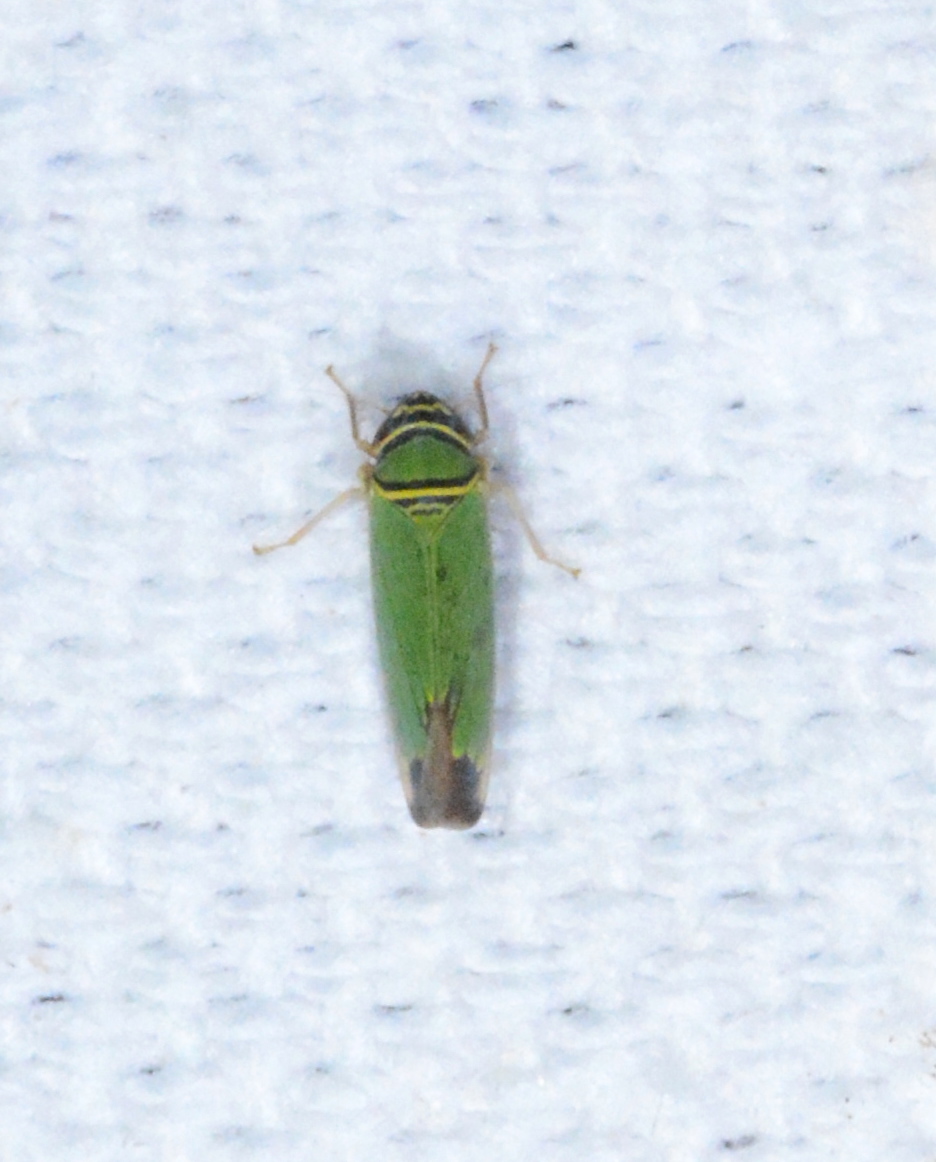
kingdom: Animalia
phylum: Arthropoda
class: Insecta
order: Hemiptera
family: Cicadellidae
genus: Tylozygus
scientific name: Tylozygus geometricus
